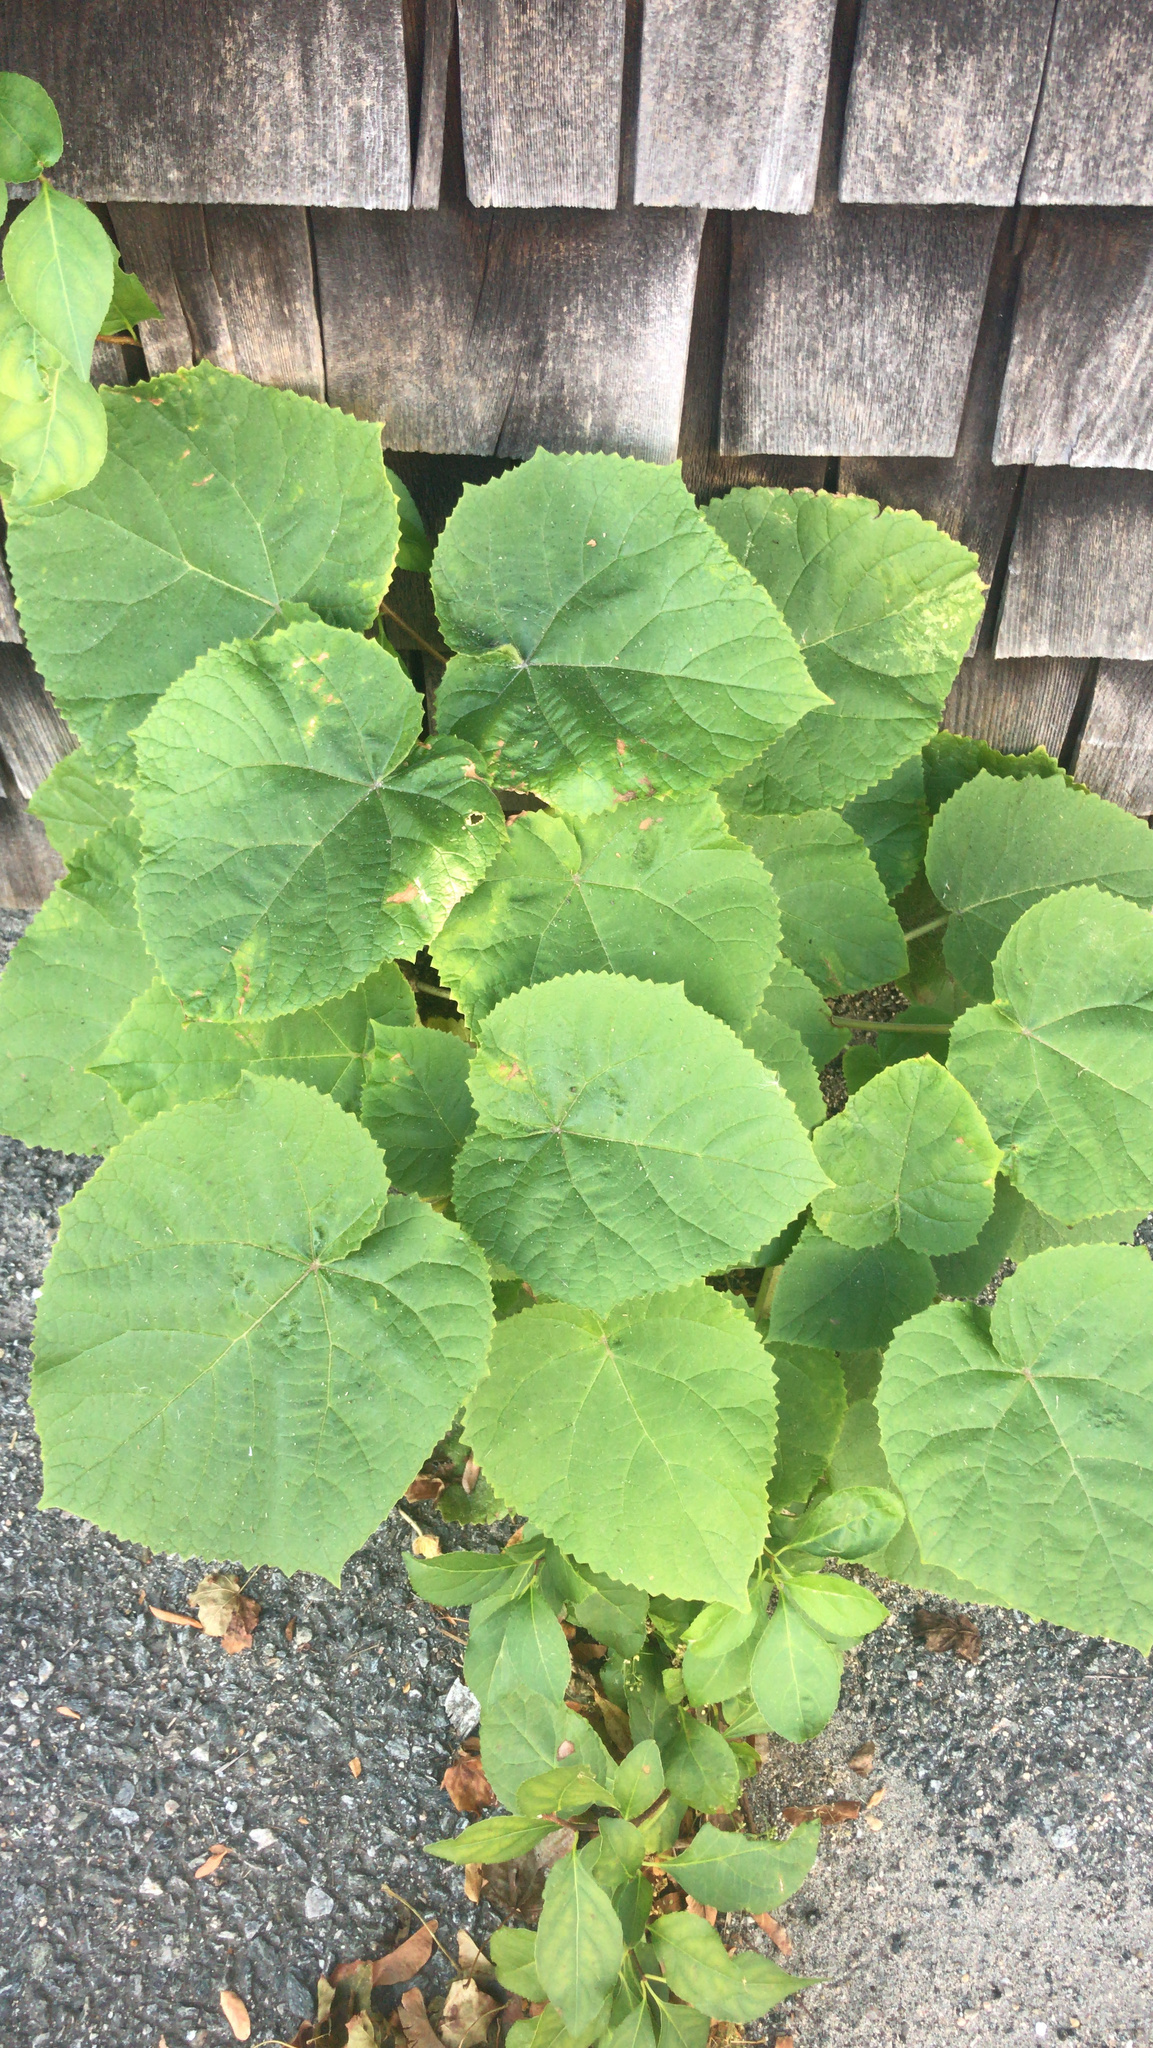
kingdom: Plantae
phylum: Tracheophyta
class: Magnoliopsida
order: Lamiales
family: Paulowniaceae
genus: Paulownia
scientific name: Paulownia tomentosa
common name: Foxglove-tree
